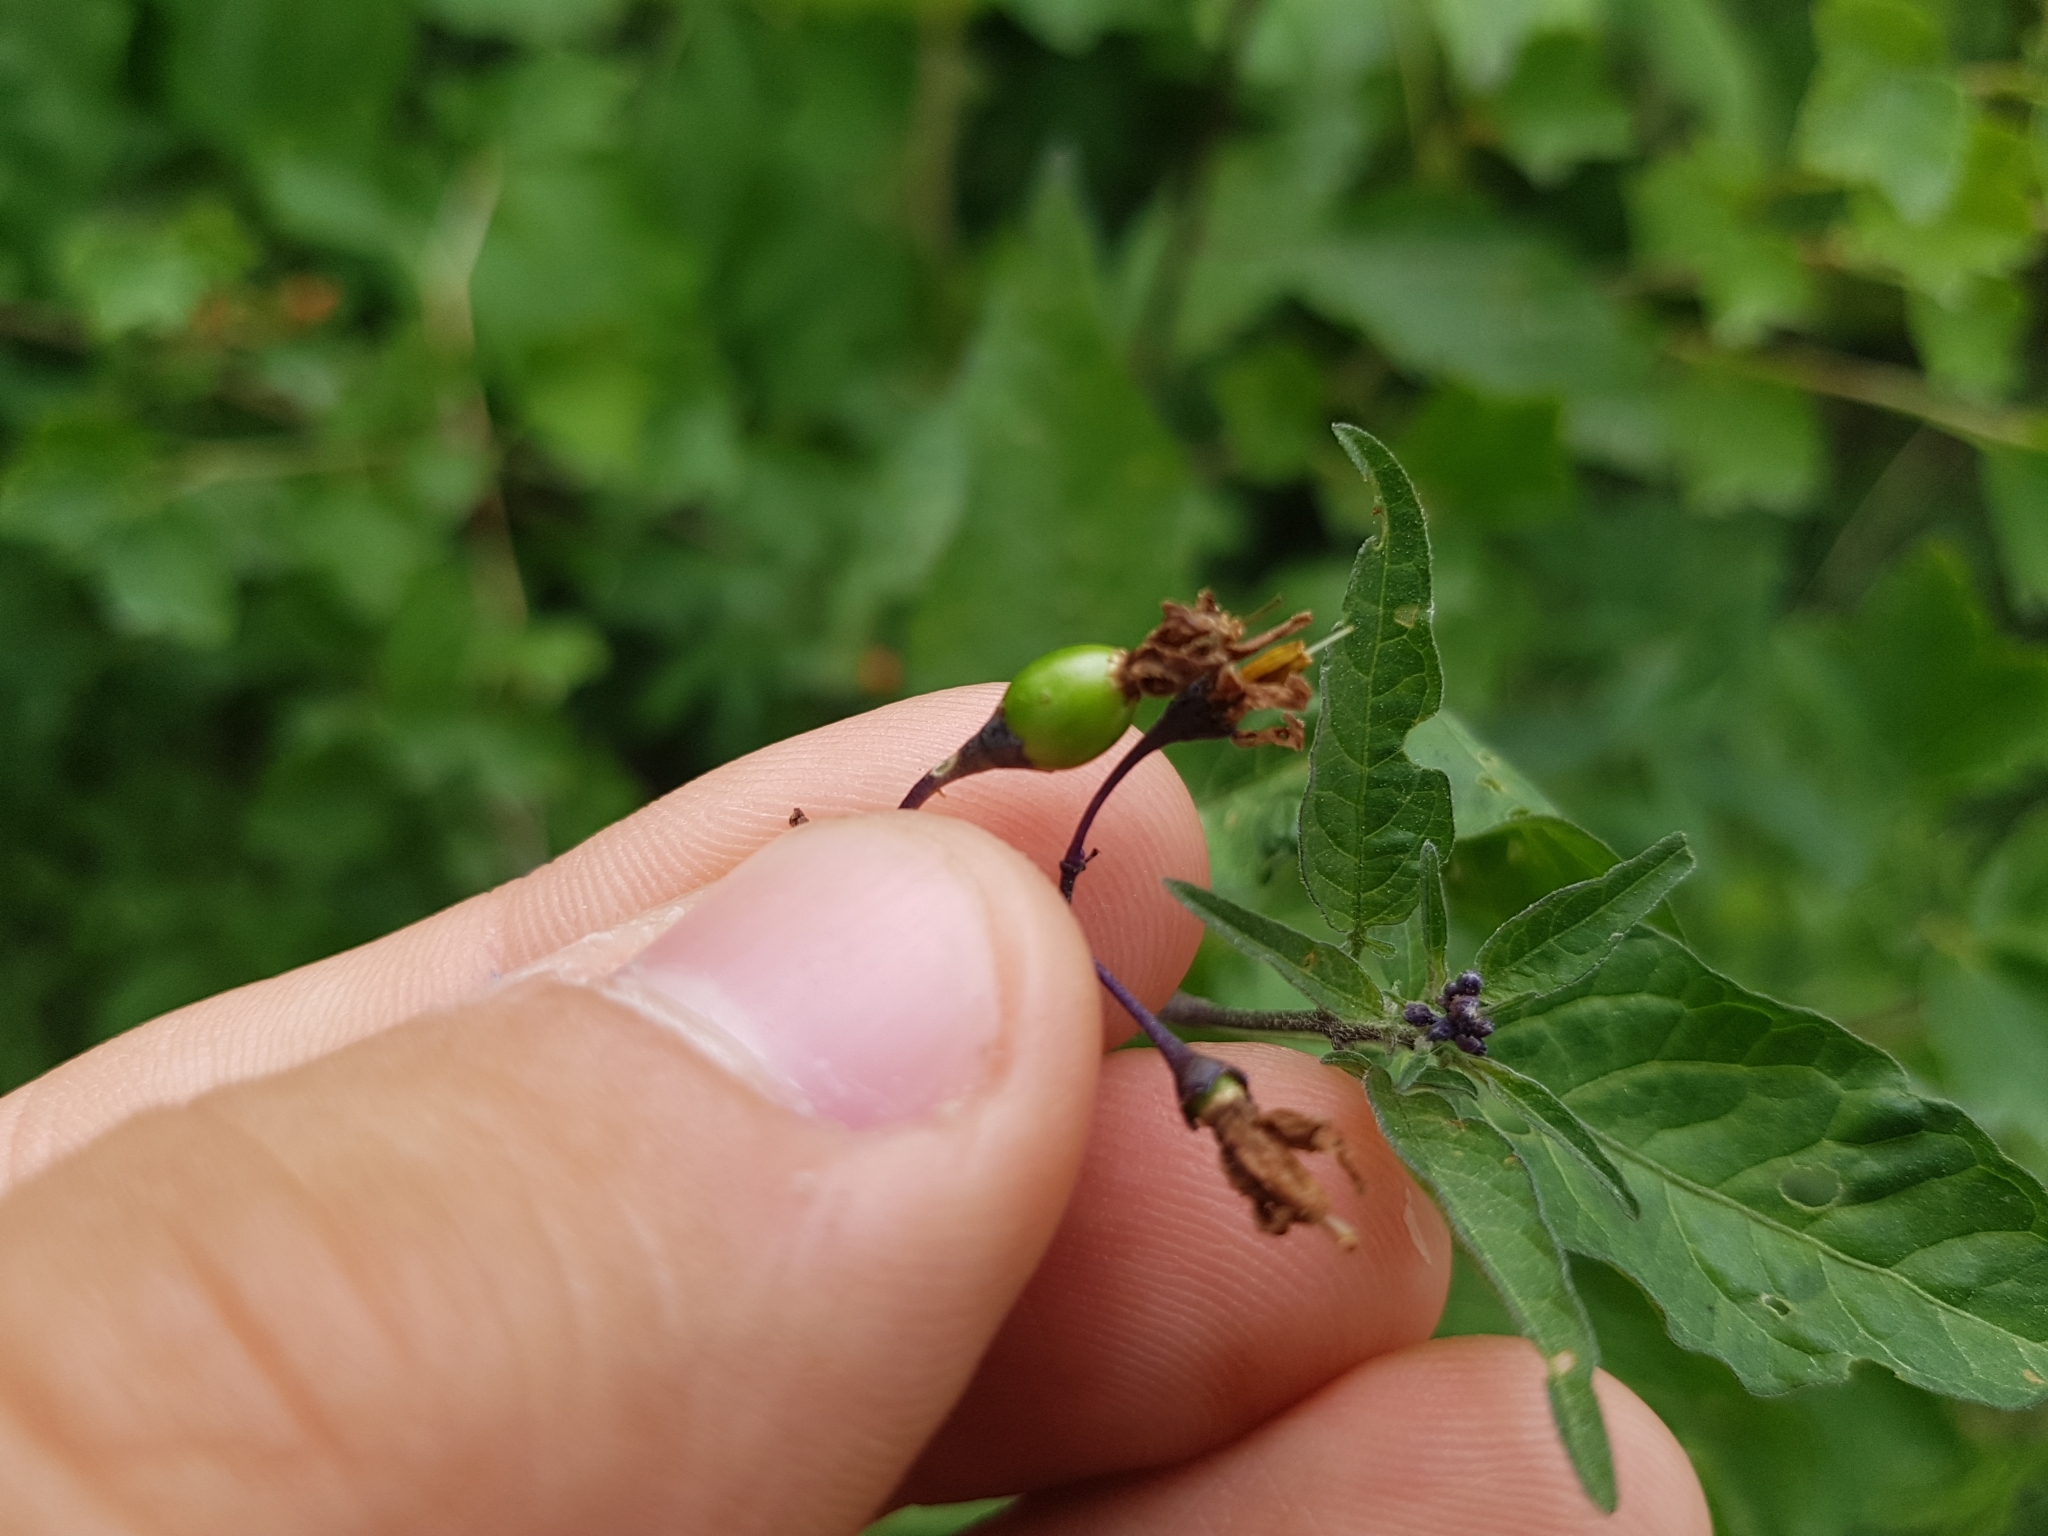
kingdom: Plantae
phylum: Tracheophyta
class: Magnoliopsida
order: Solanales
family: Solanaceae
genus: Solanum
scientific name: Solanum dulcamara
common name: Climbing nightshade
